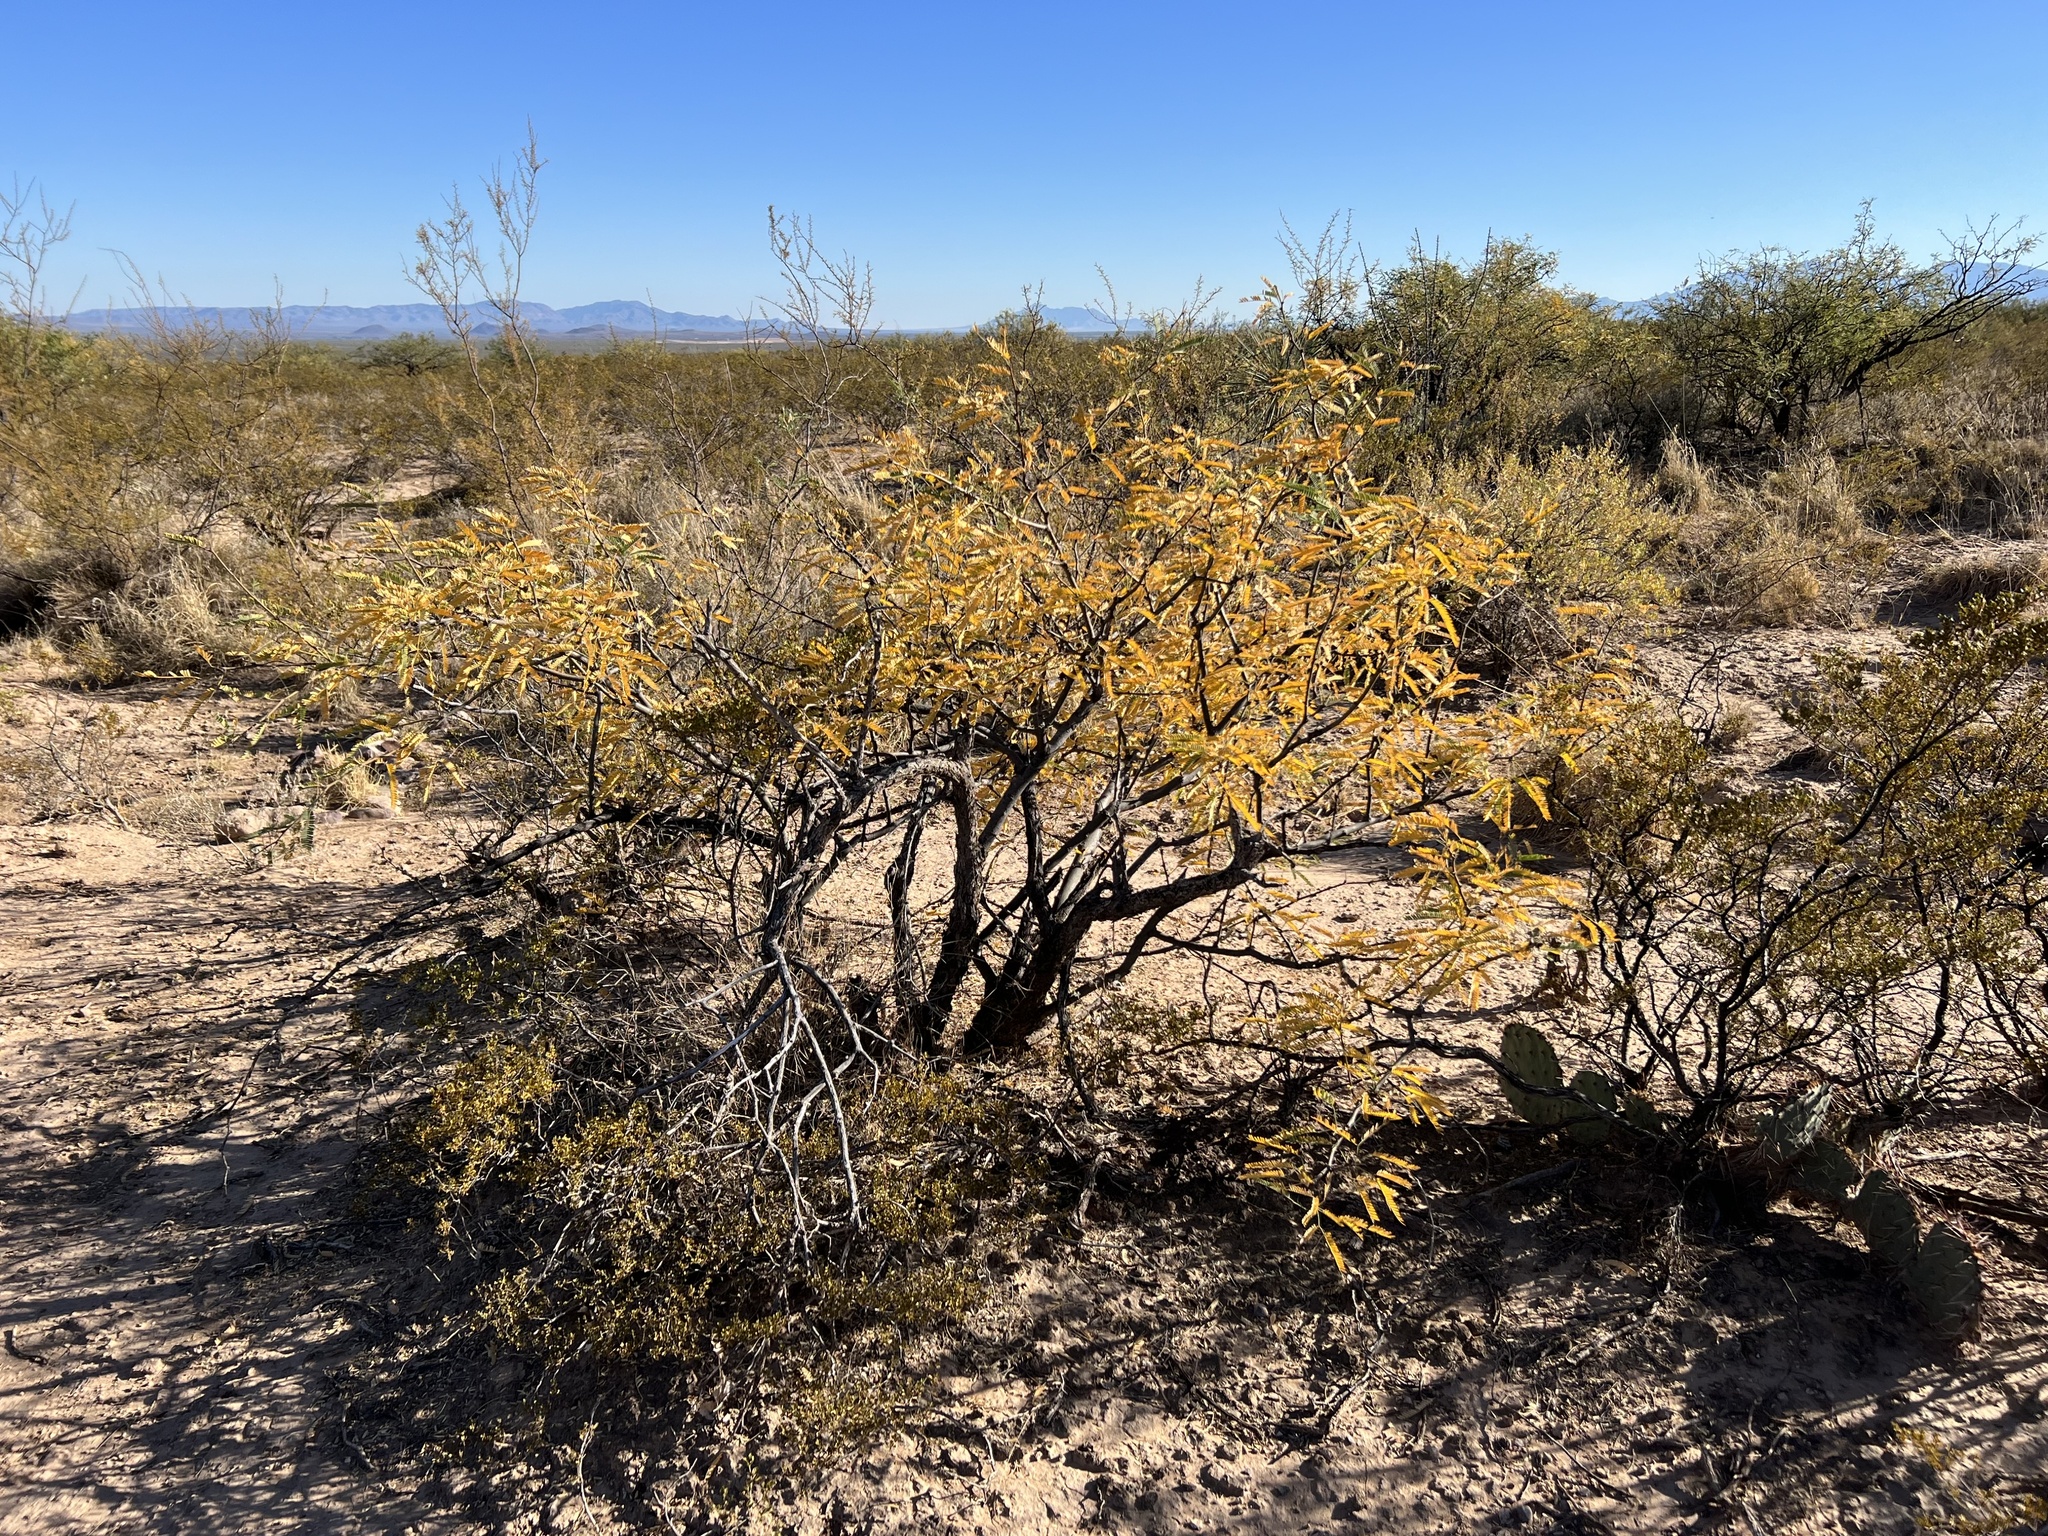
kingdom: Plantae
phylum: Tracheophyta
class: Magnoliopsida
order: Fabales
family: Fabaceae
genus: Prosopis
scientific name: Prosopis velutina
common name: Velvet mesquite
